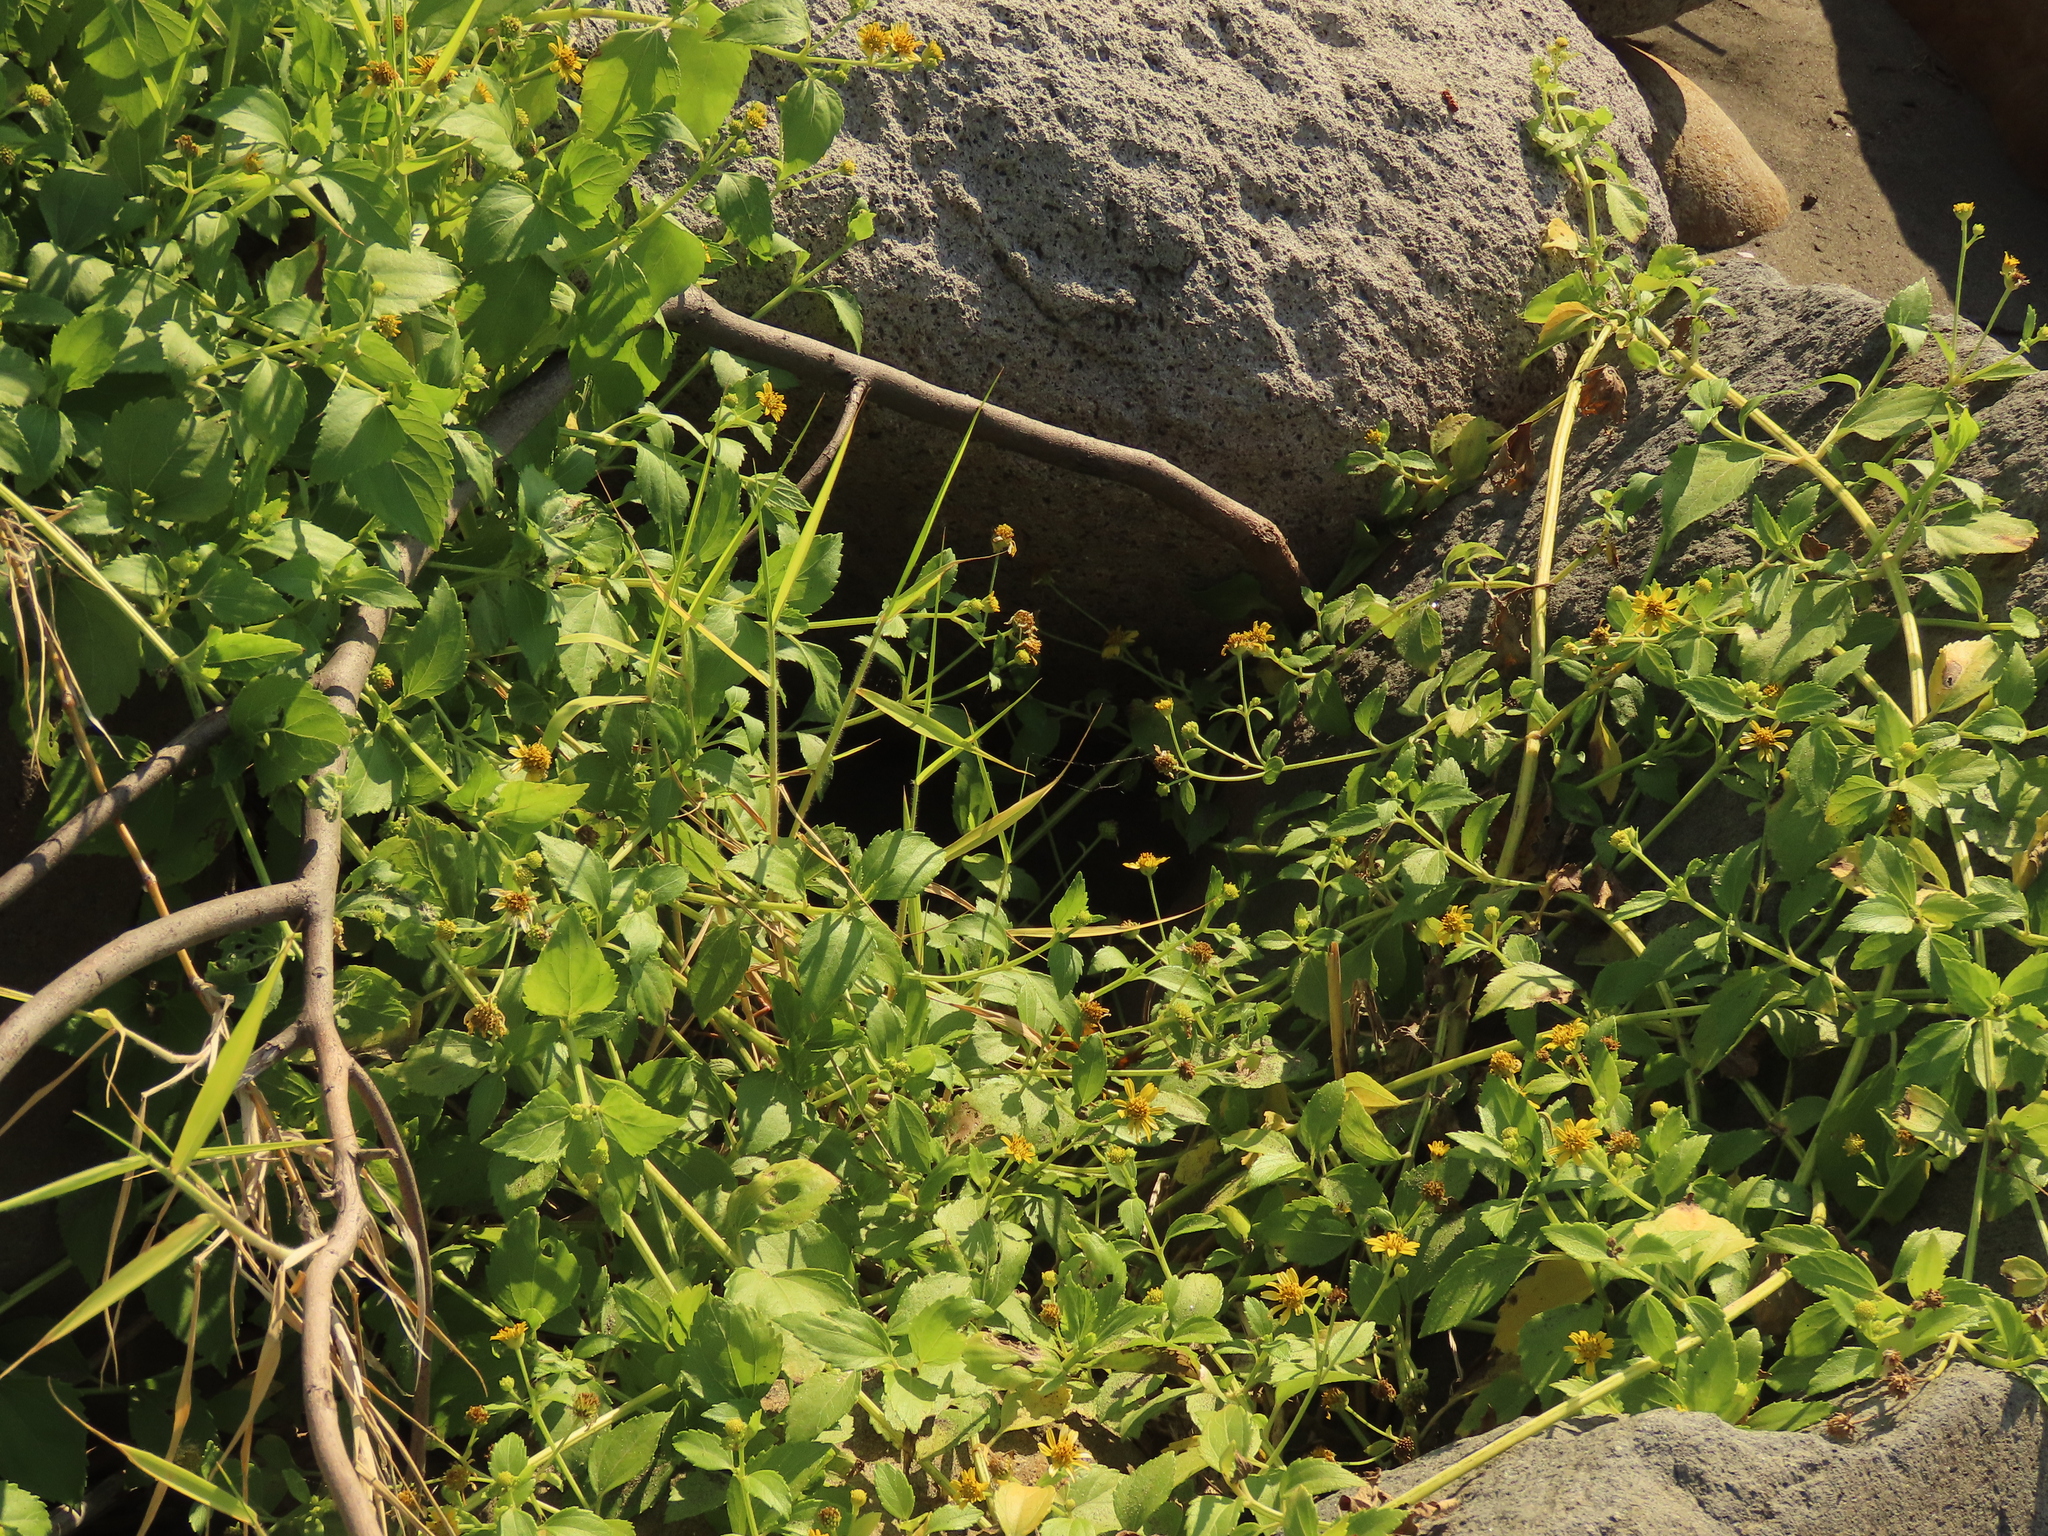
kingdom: Plantae
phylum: Tracheophyta
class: Magnoliopsida
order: Asterales
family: Asteraceae
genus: Wollastonia
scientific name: Wollastonia biflora
